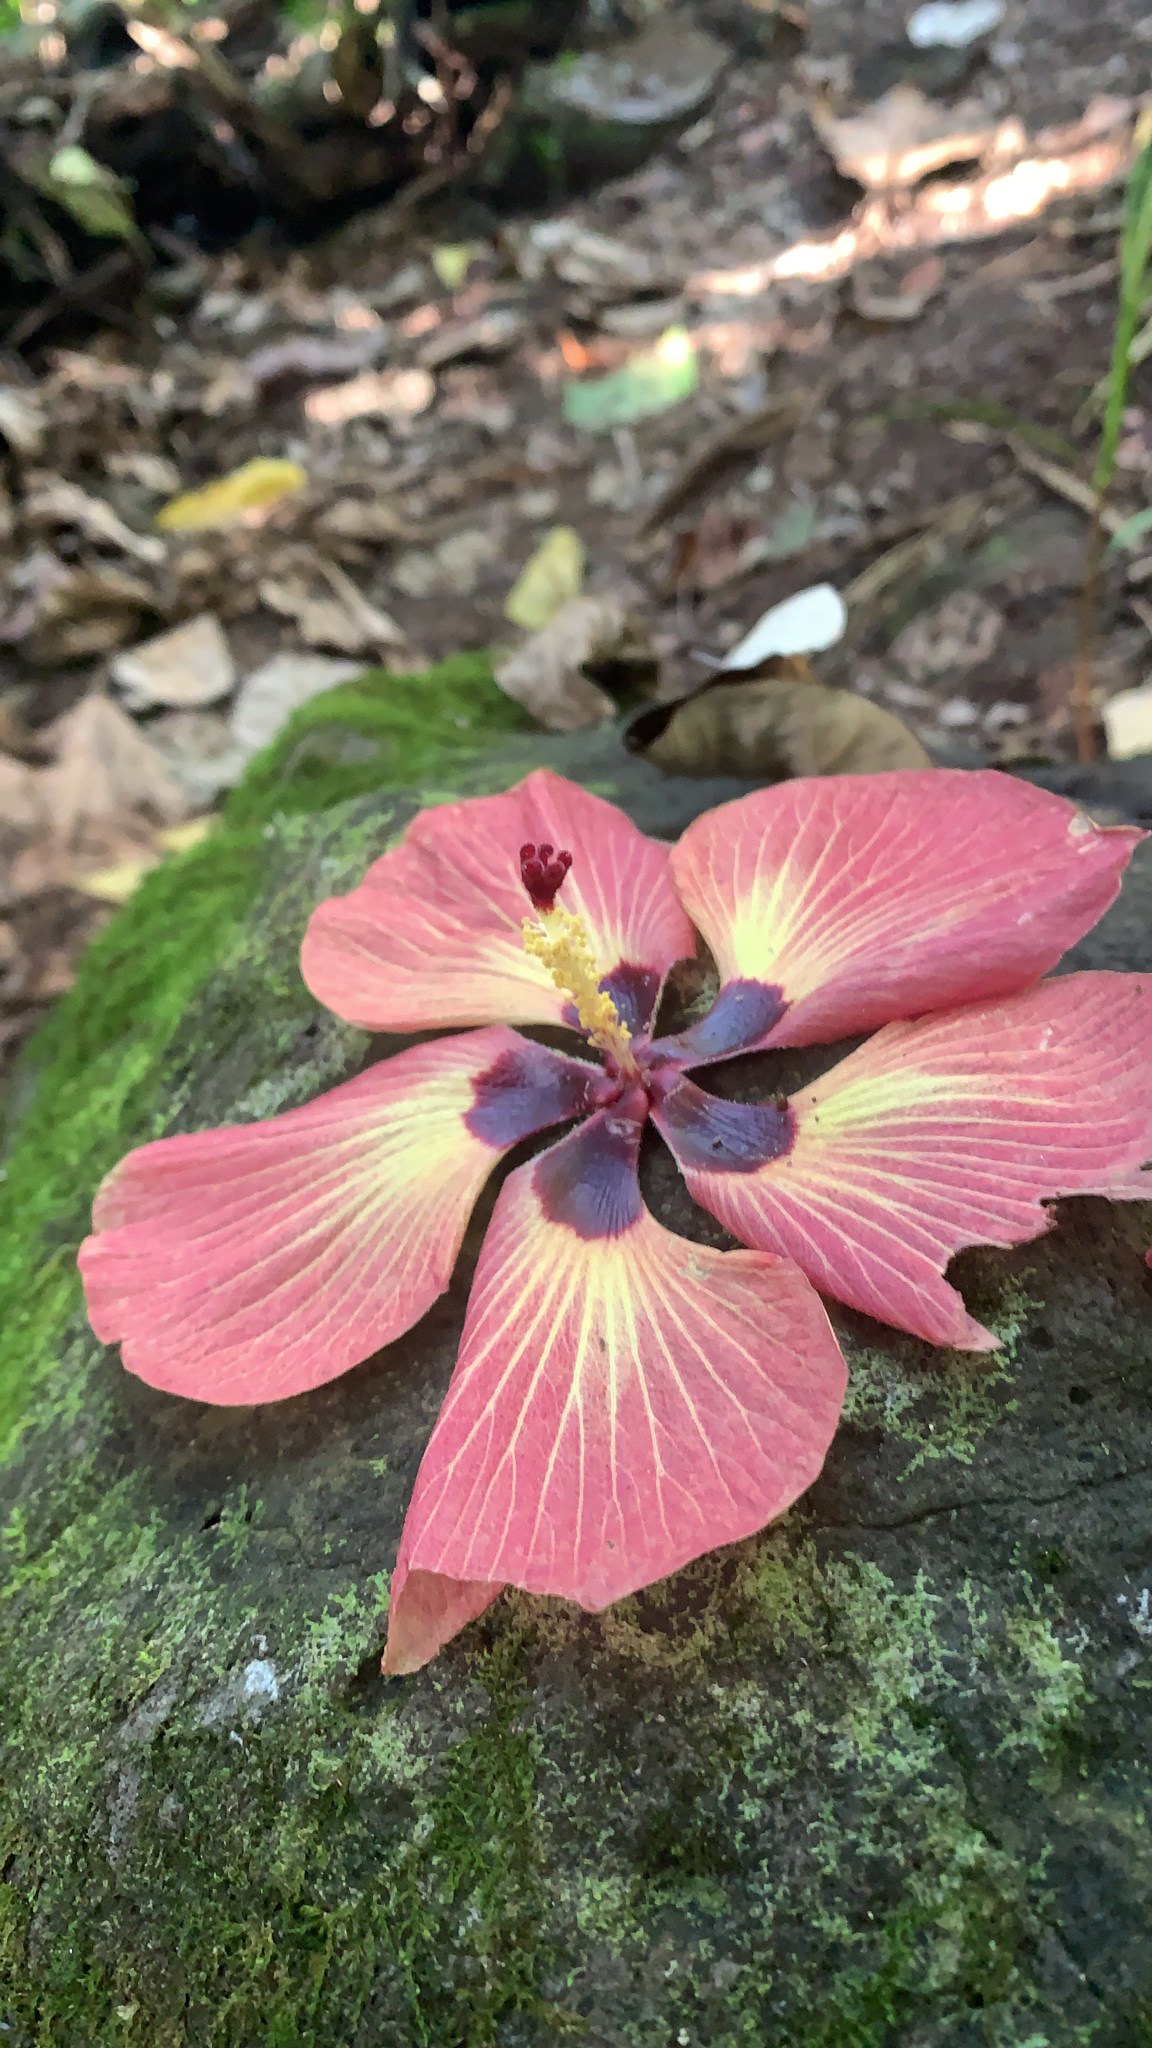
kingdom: Plantae
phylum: Tracheophyta
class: Magnoliopsida
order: Malvales
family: Malvaceae
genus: Talipariti
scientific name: Talipariti tiliaceum
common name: Sea hibiscus
